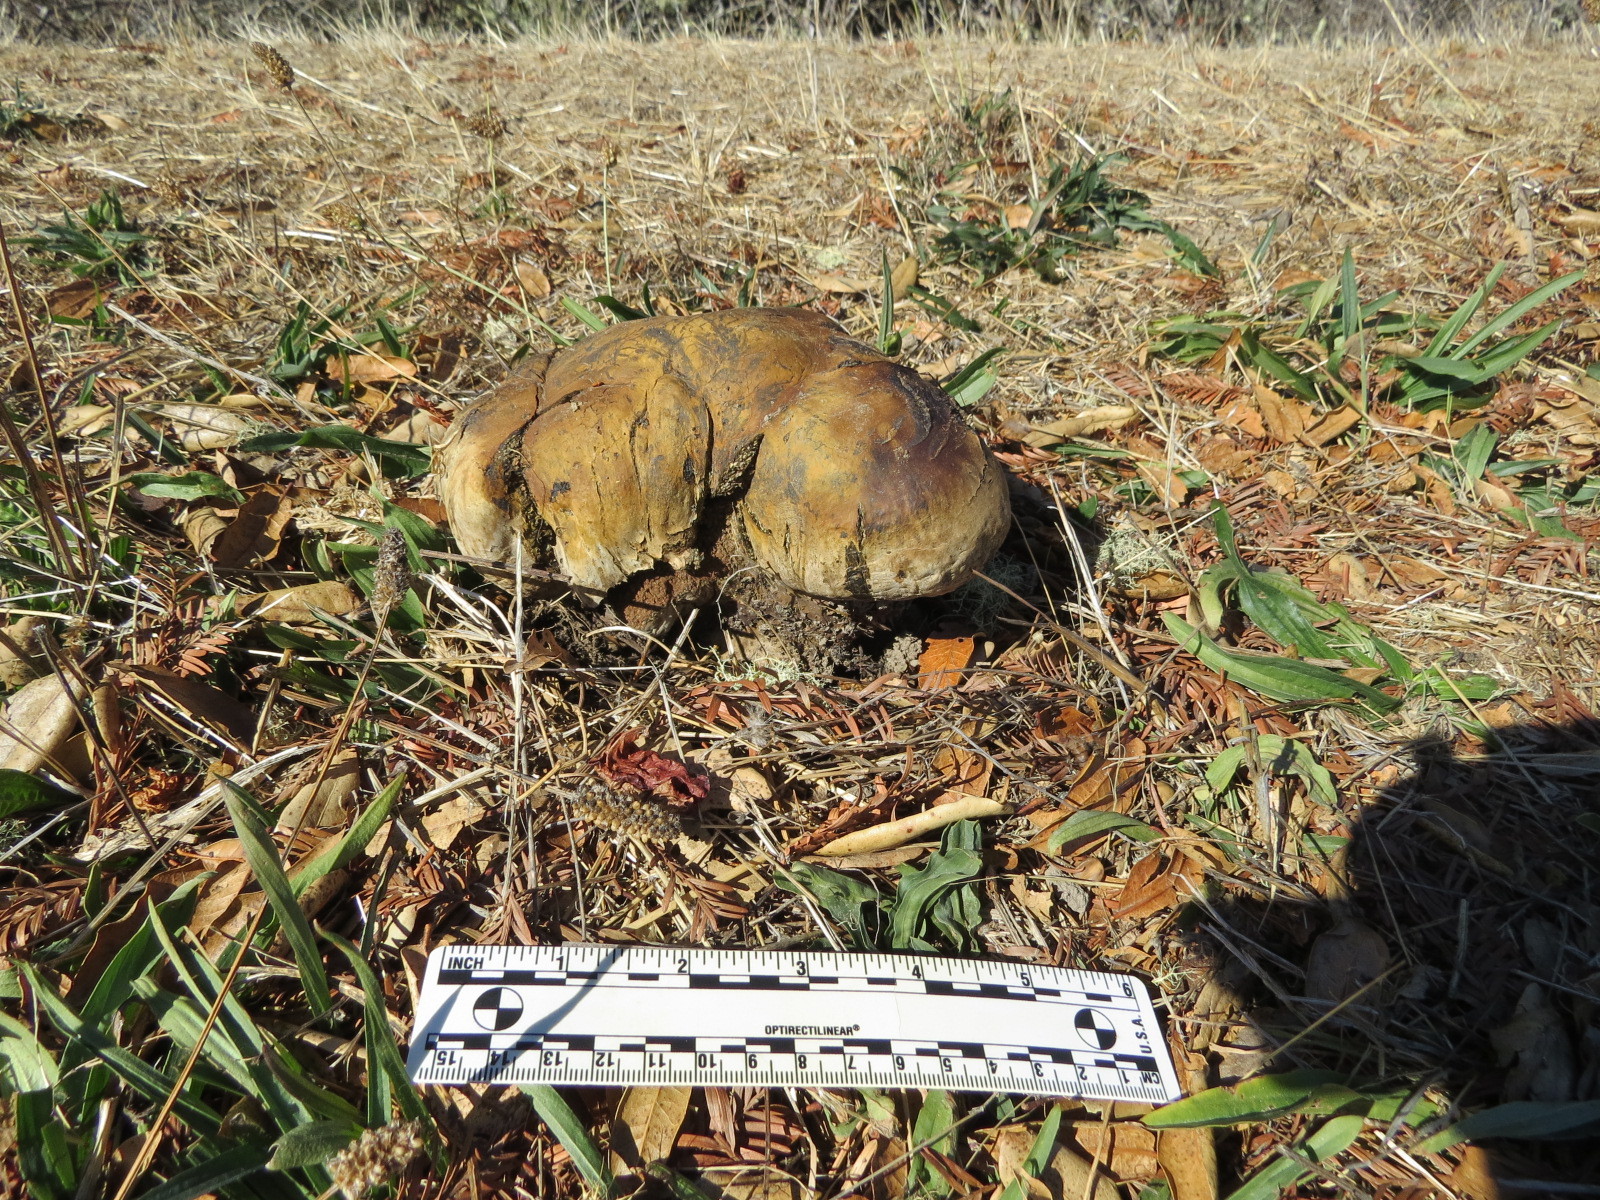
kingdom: Fungi
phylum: Basidiomycota
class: Agaricomycetes
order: Boletales
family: Sclerodermataceae
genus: Pisolithus
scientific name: Pisolithus tinctorius
